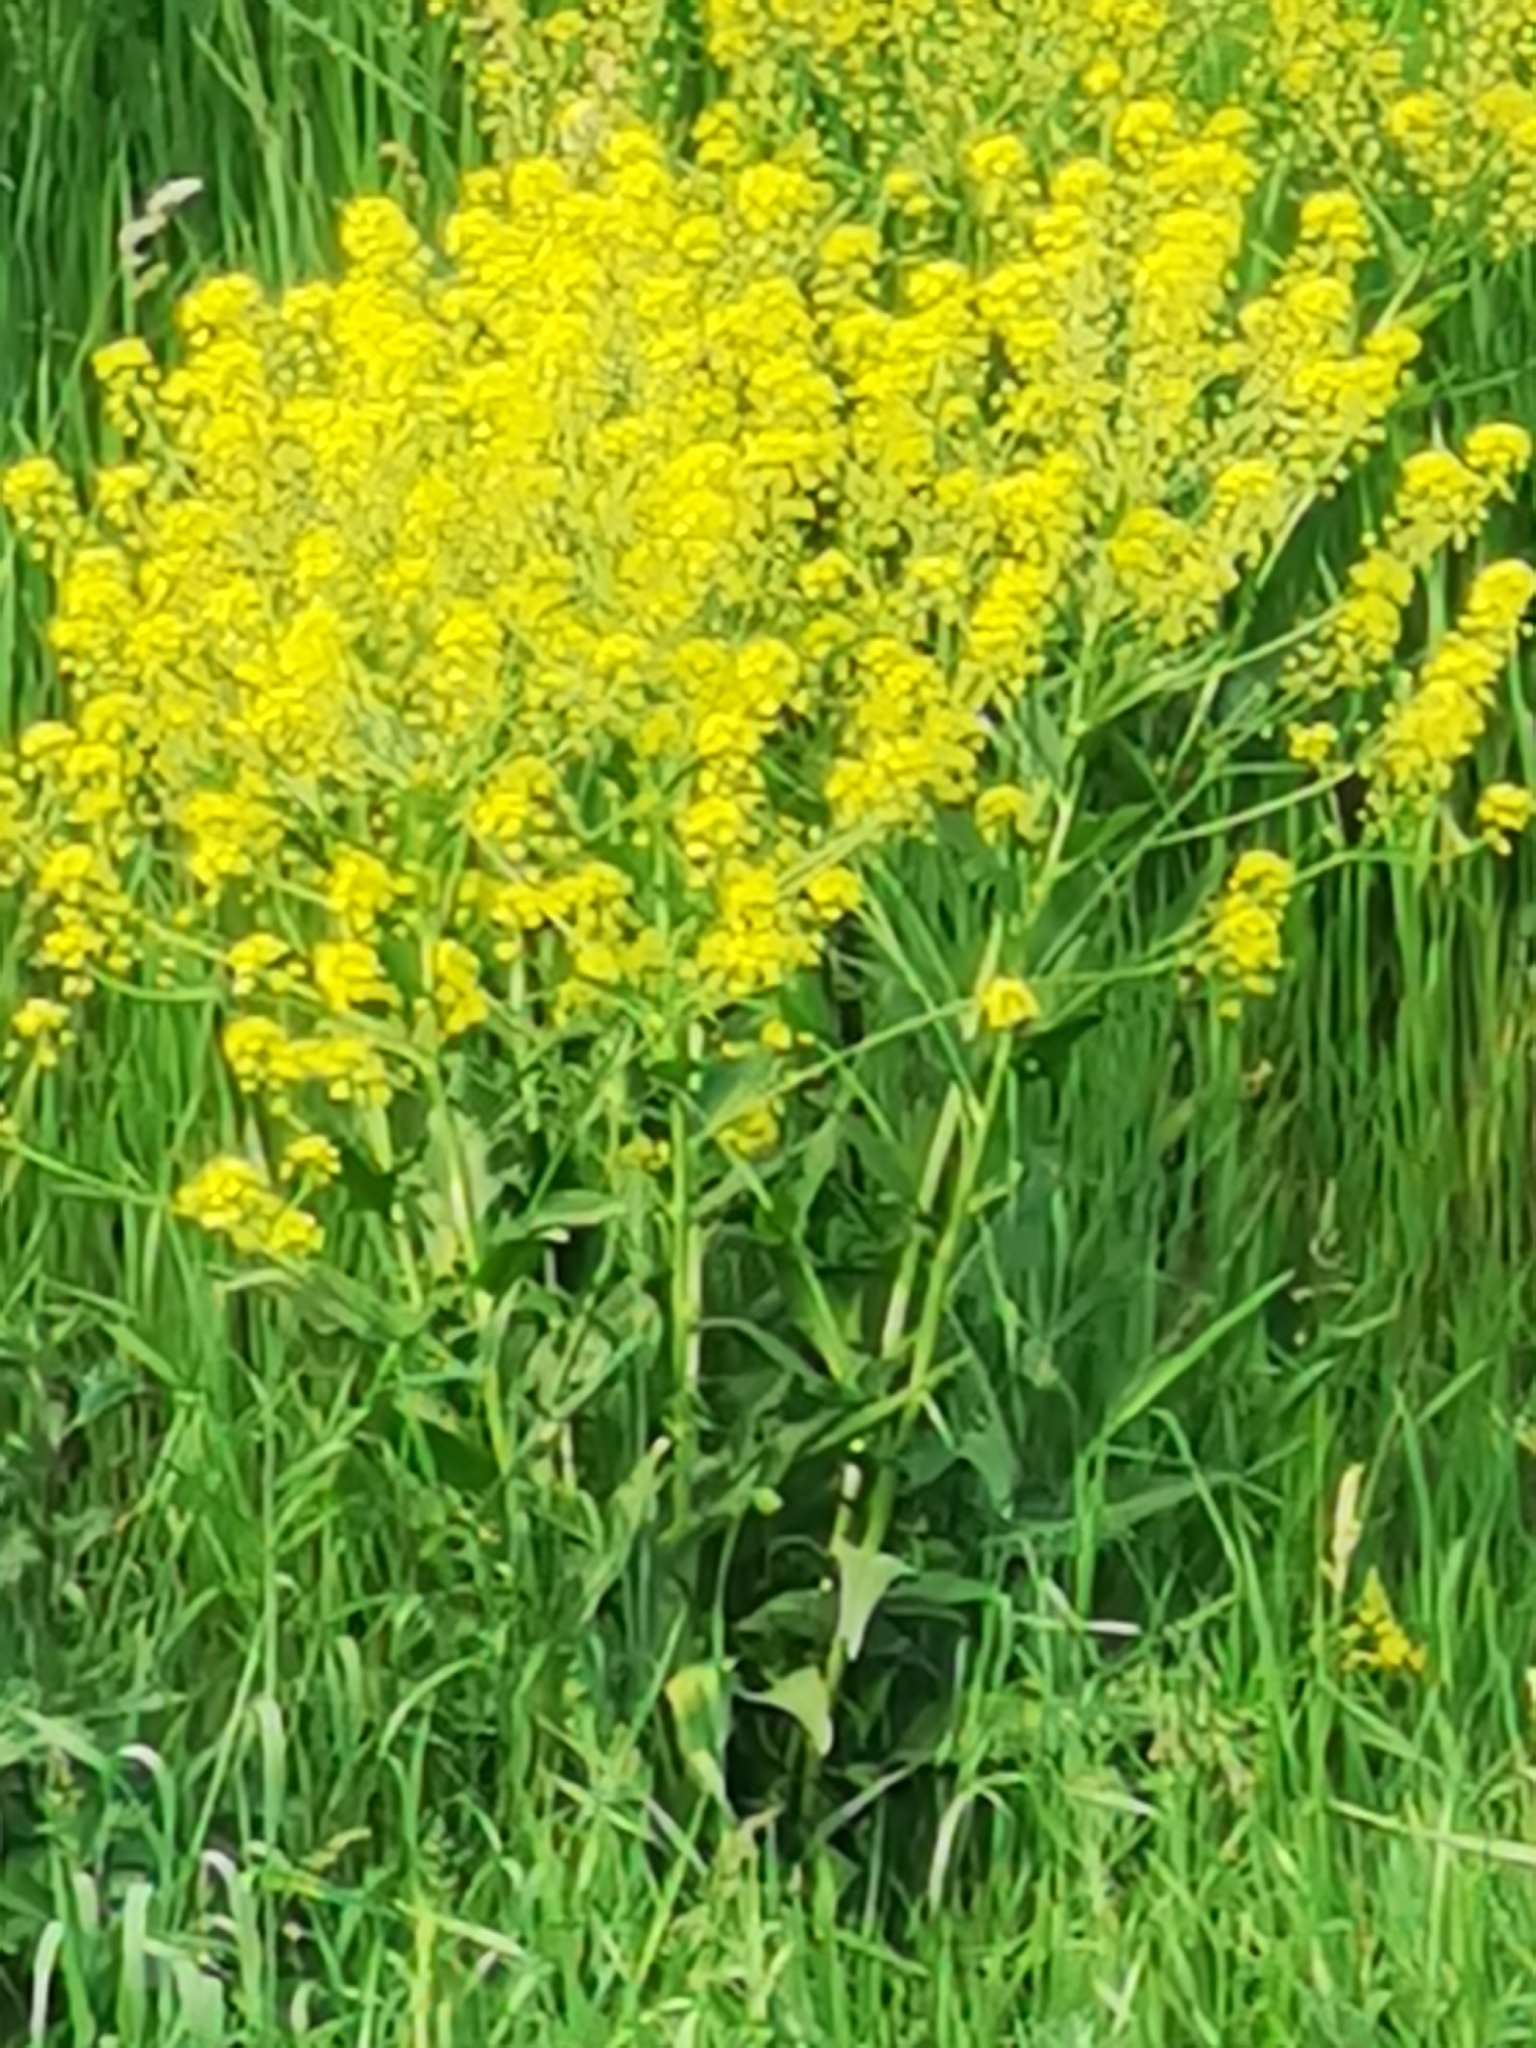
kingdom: Plantae
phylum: Tracheophyta
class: Magnoliopsida
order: Brassicales
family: Brassicaceae
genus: Bunias
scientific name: Bunias orientalis
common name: Warty-cabbage
